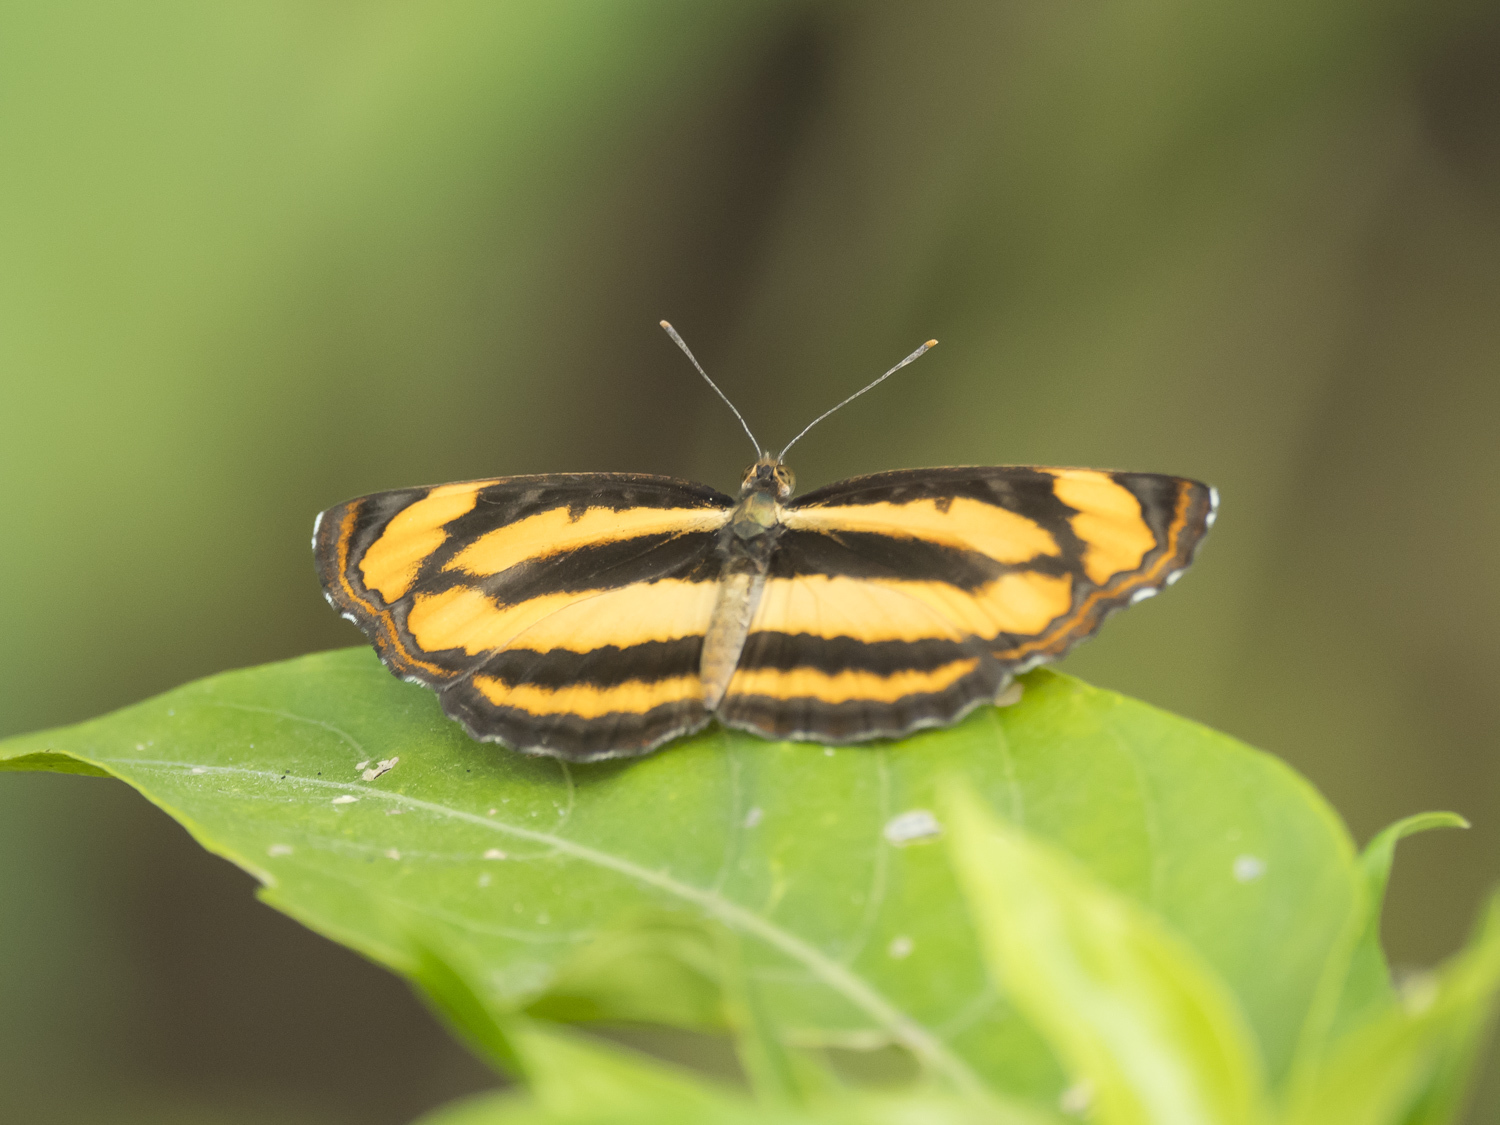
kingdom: Animalia
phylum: Arthropoda
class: Insecta
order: Lepidoptera
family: Nymphalidae
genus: Pantoporia
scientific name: Pantoporia hordonia
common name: Common lascar
